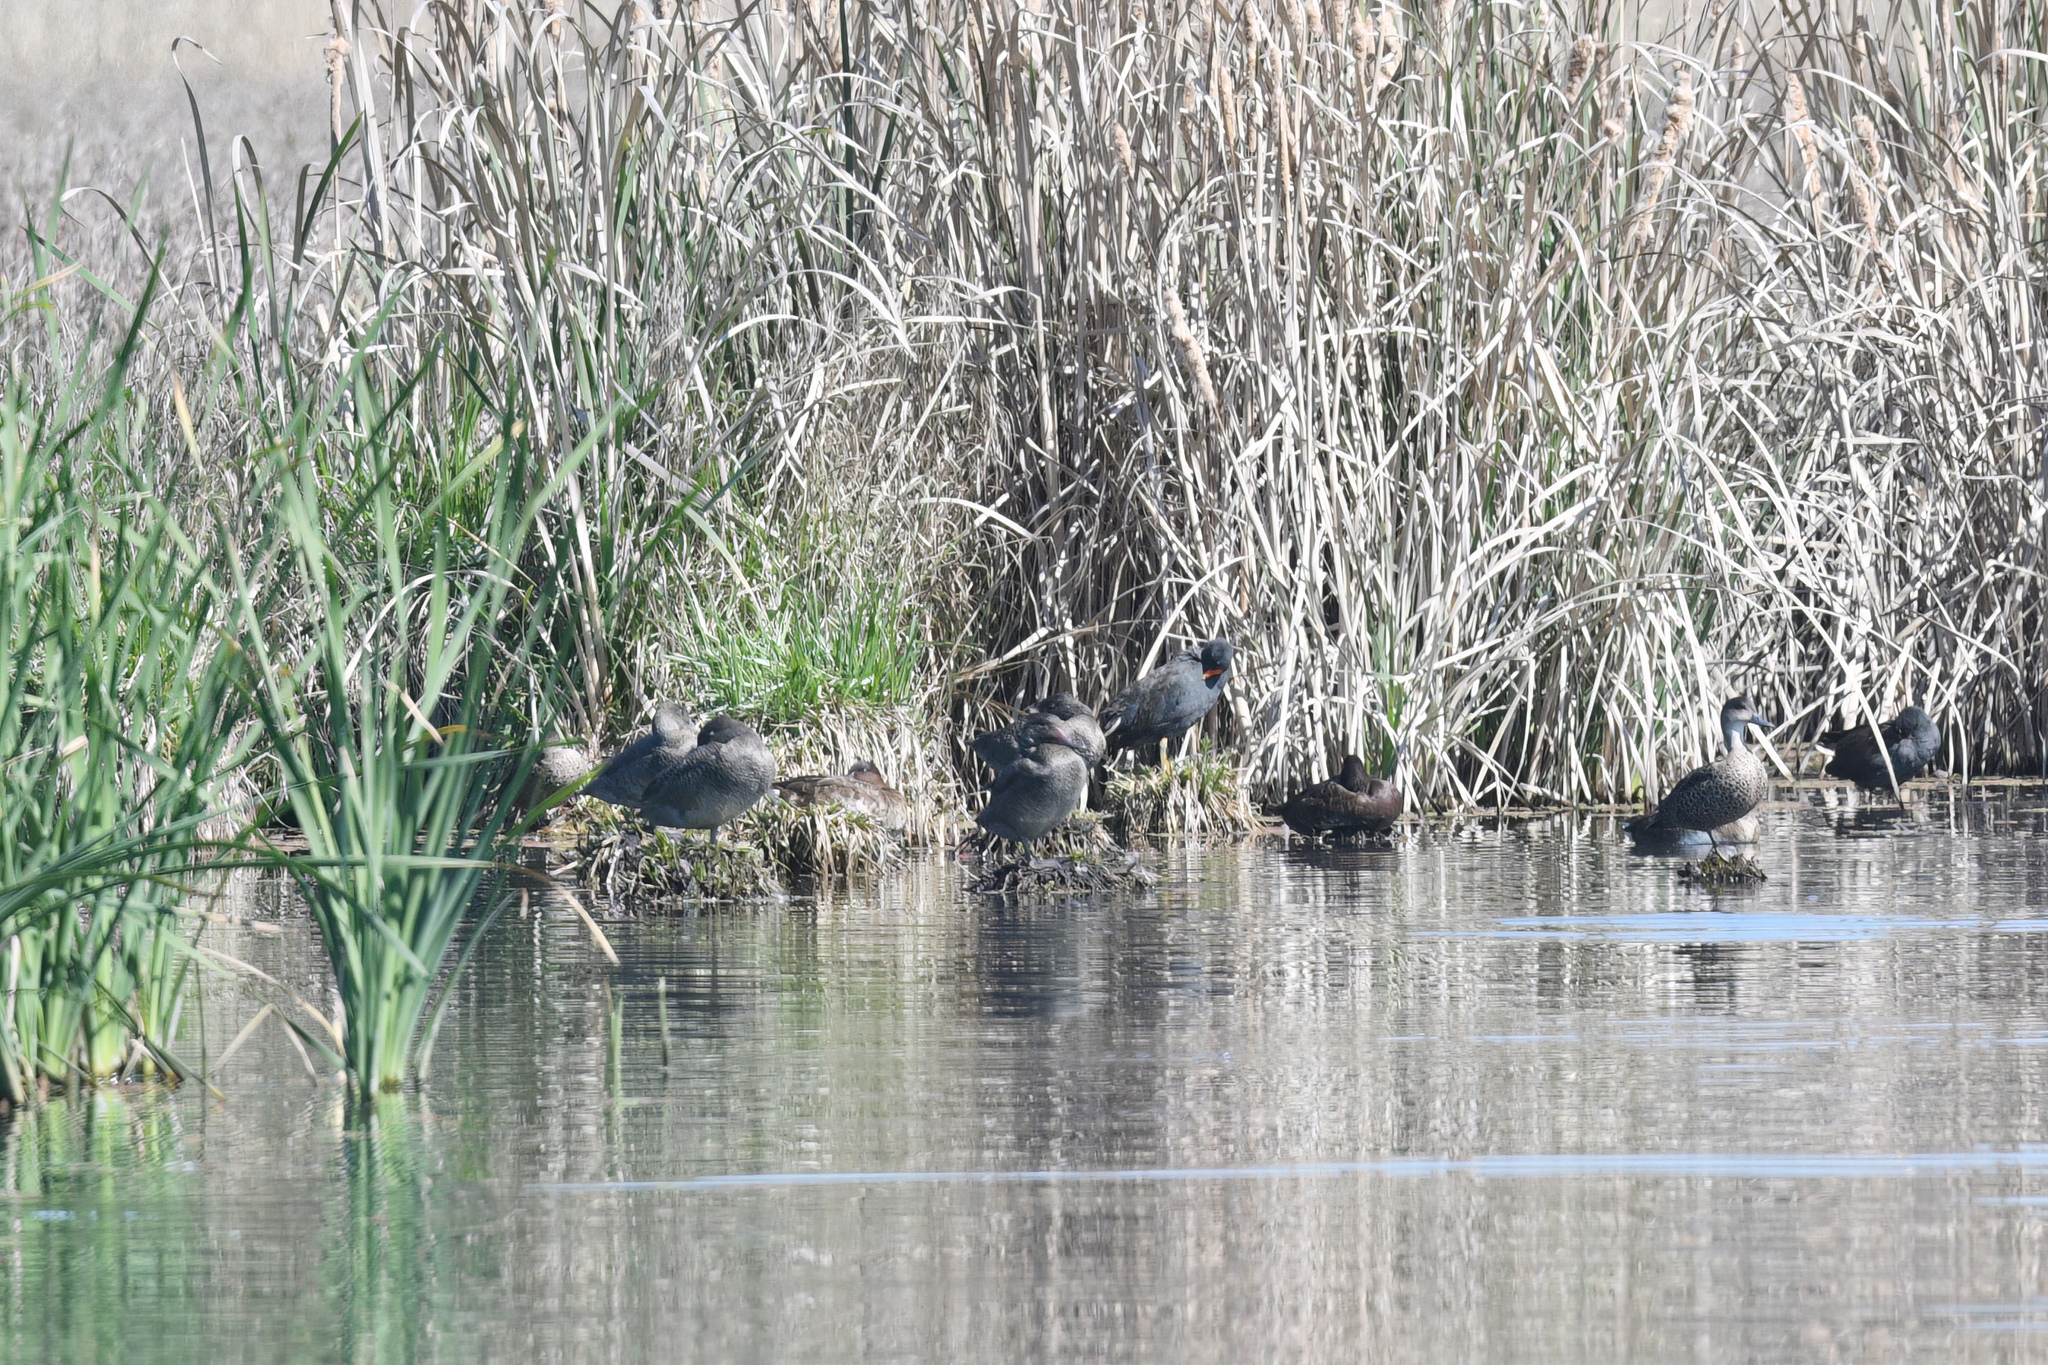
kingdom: Animalia
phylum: Chordata
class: Aves
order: Anseriformes
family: Anatidae
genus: Stictonetta
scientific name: Stictonetta naevosa
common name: Freckled duck
